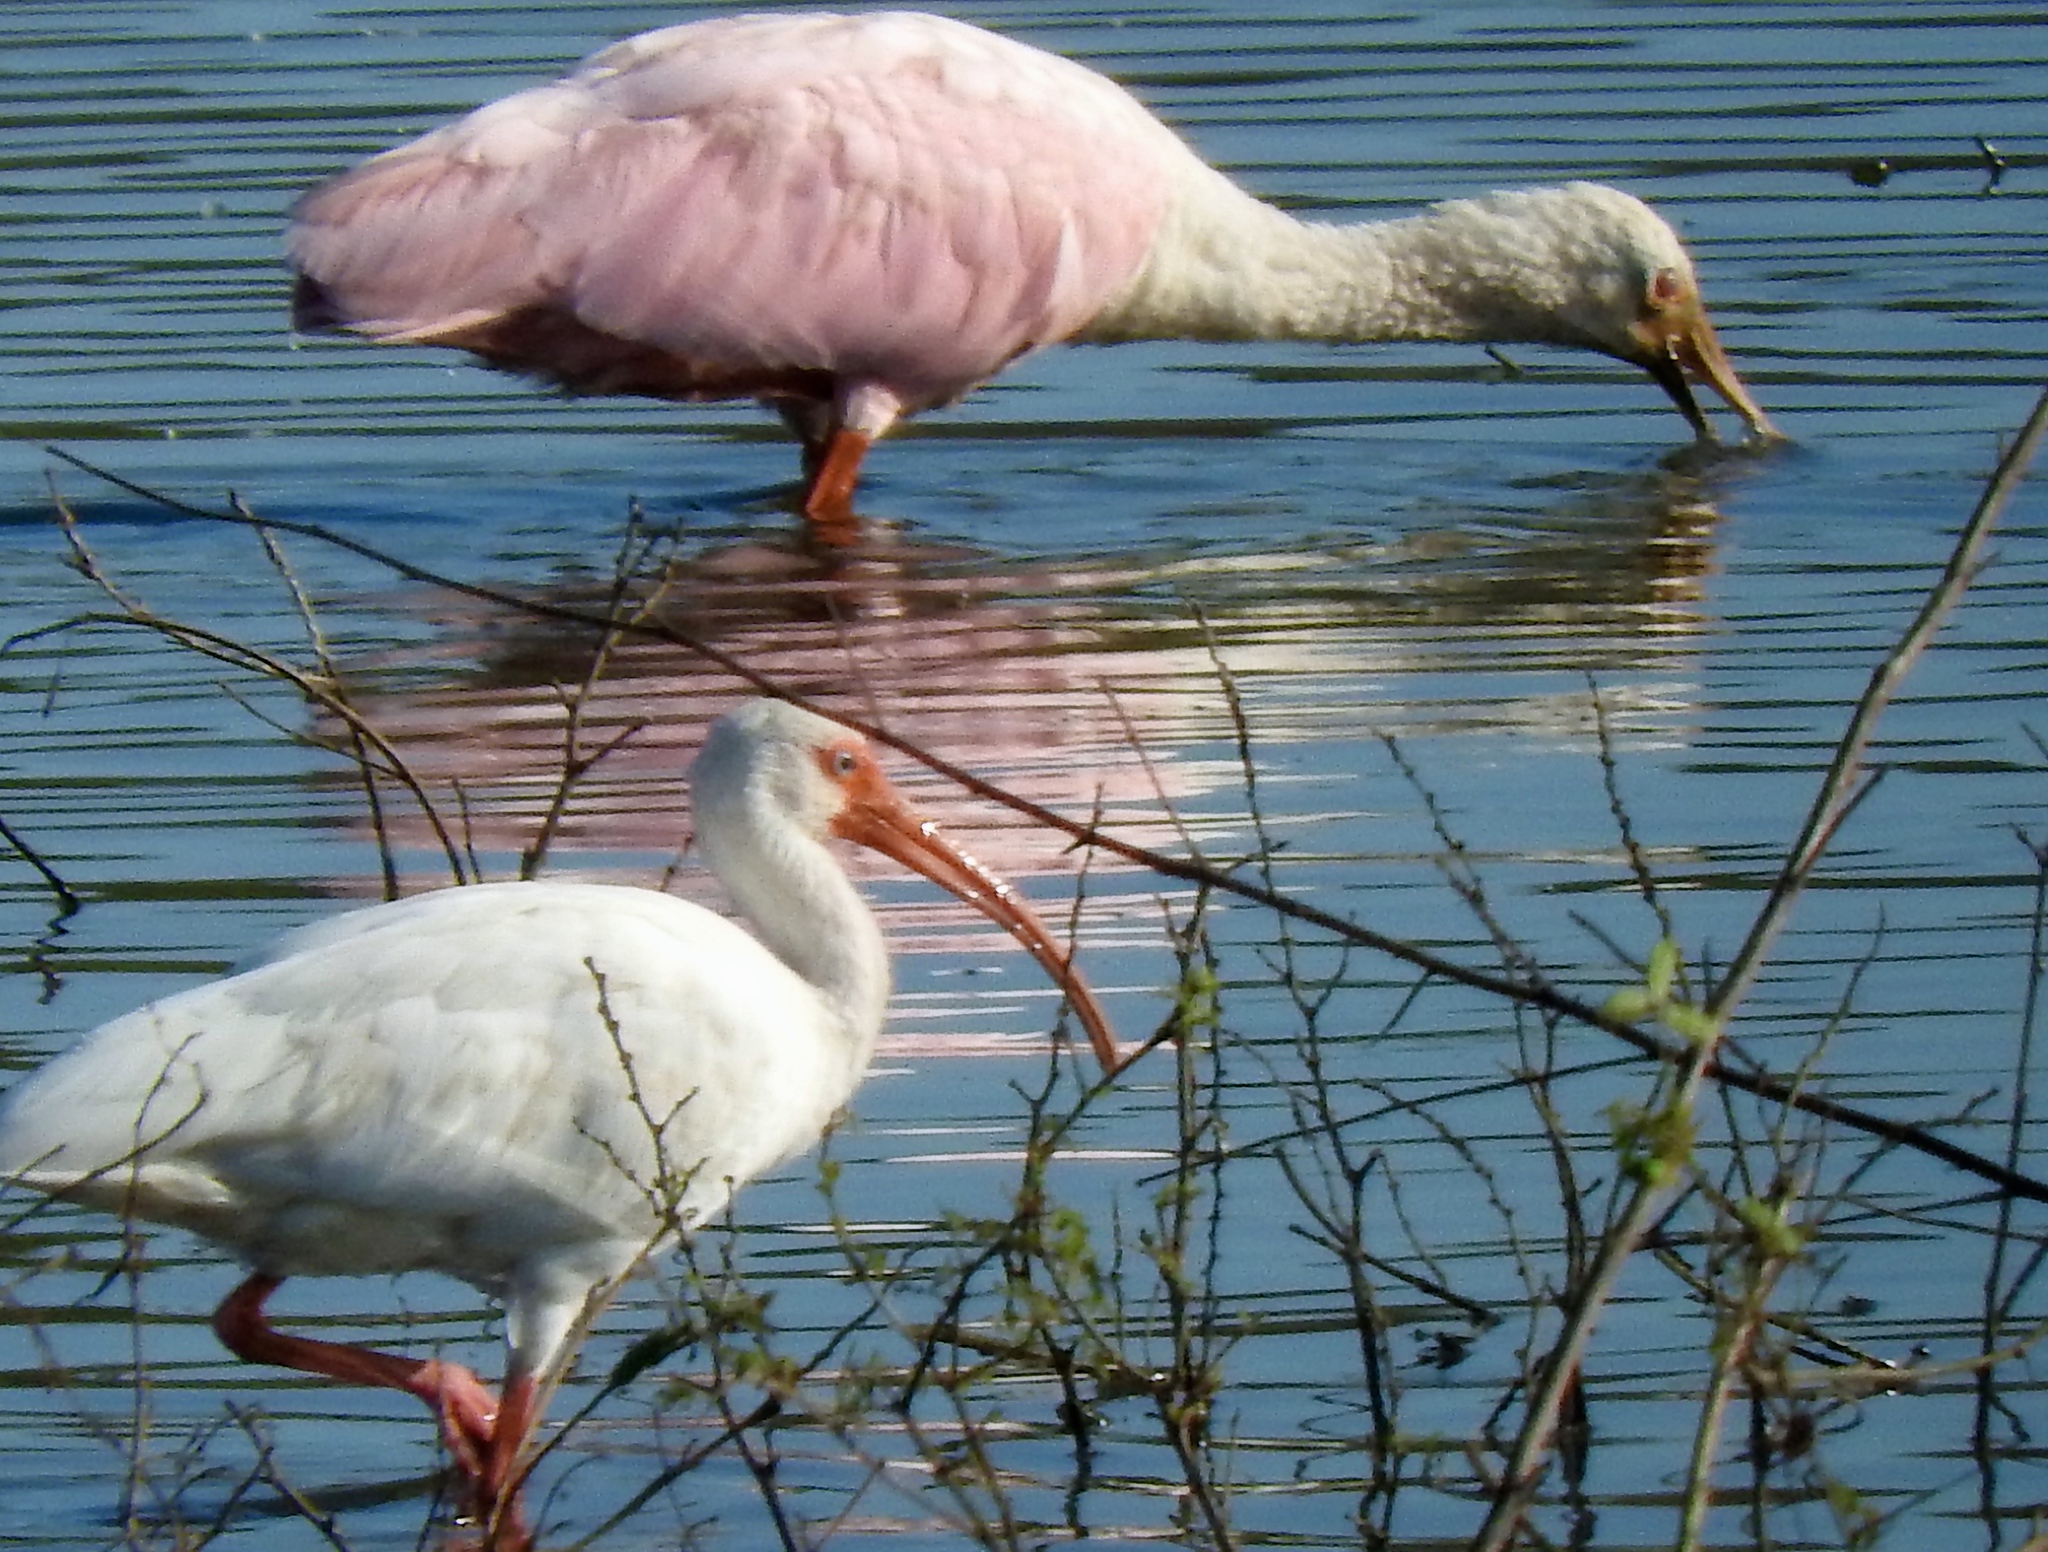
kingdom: Animalia
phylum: Chordata
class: Aves
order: Pelecaniformes
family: Threskiornithidae
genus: Eudocimus
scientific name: Eudocimus albus
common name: White ibis
